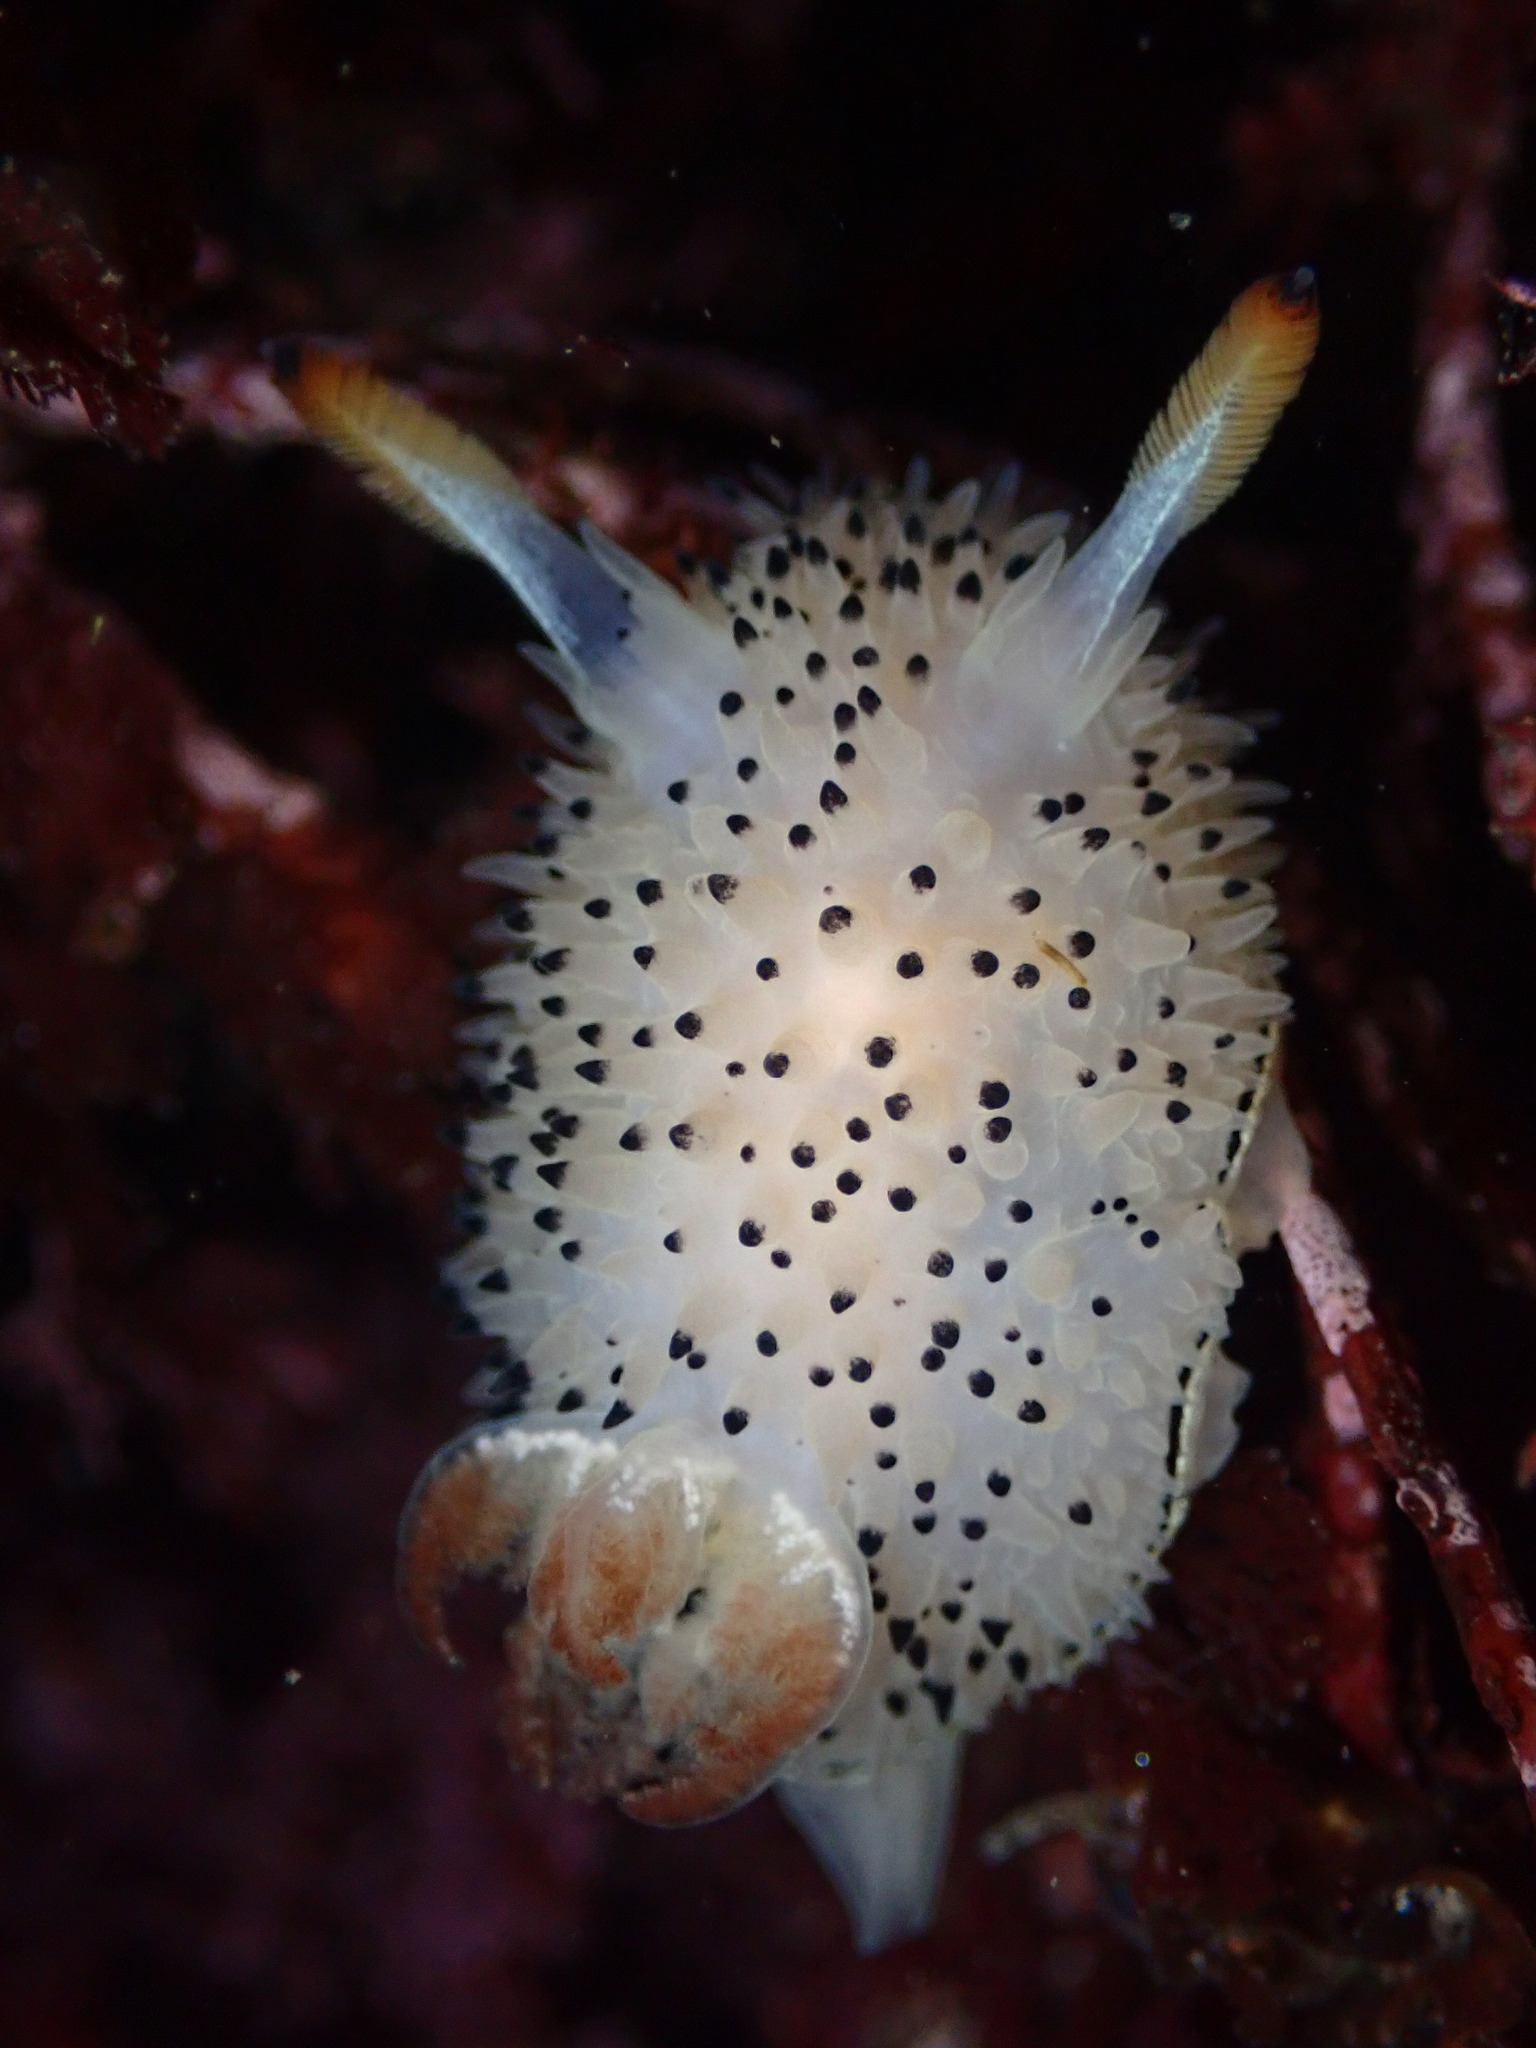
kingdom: Animalia
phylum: Mollusca
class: Gastropoda
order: Nudibranchia
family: Onchidorididae
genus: Acanthodoris
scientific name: Acanthodoris rhodoceras
